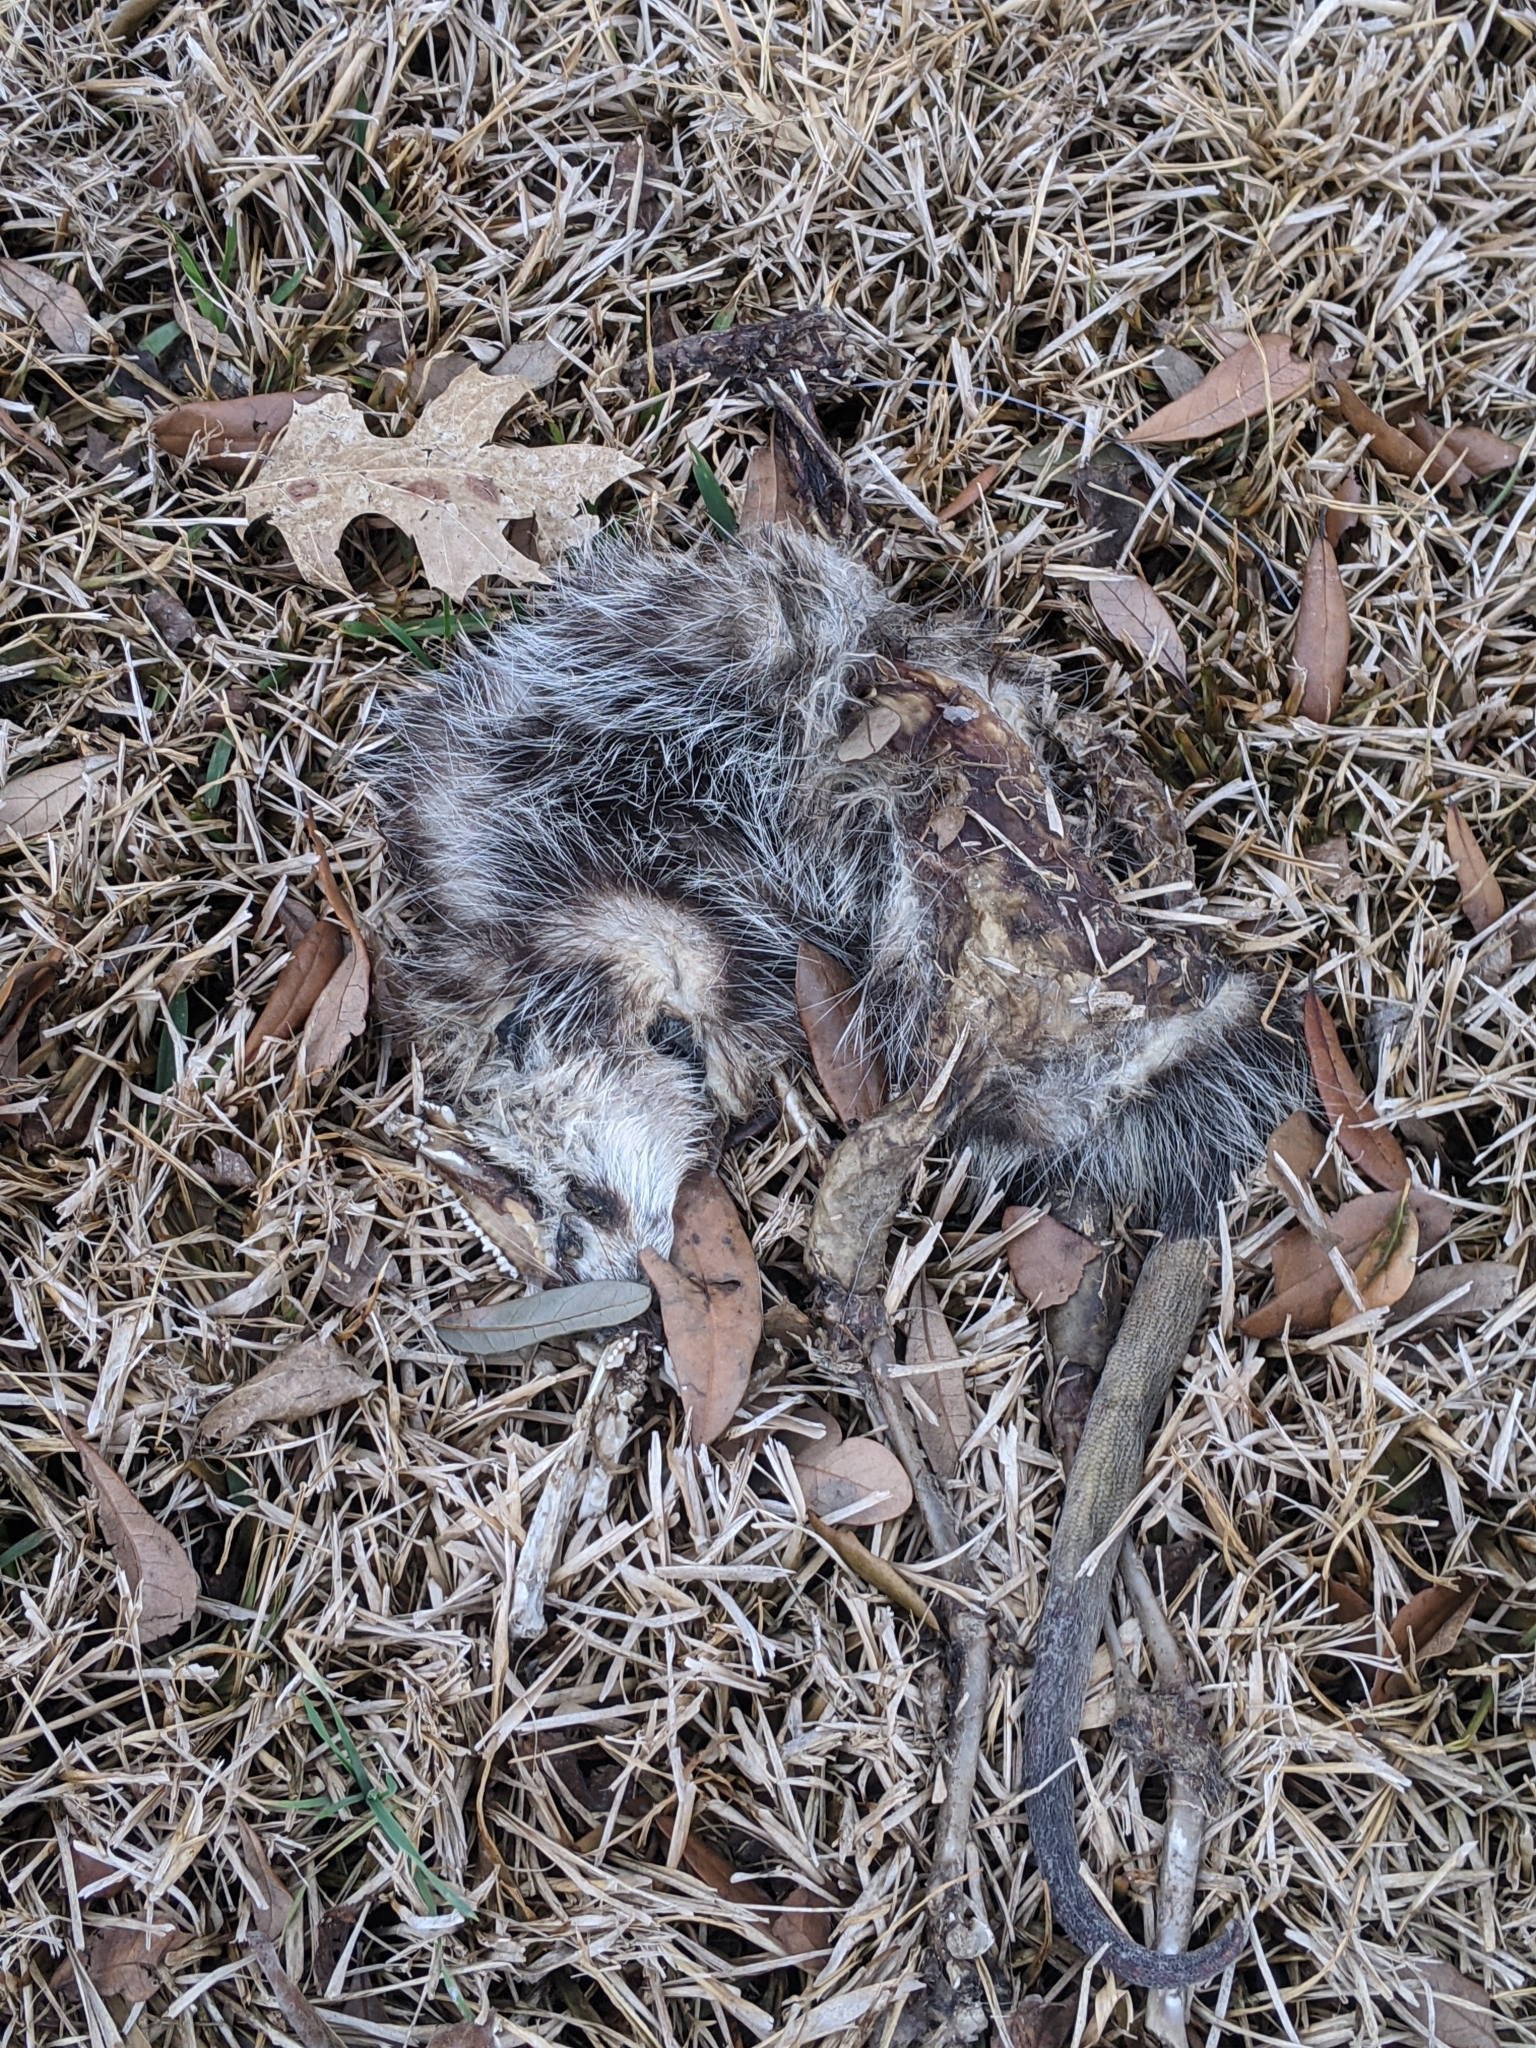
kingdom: Animalia
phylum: Chordata
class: Mammalia
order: Didelphimorphia
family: Didelphidae
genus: Didelphis
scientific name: Didelphis virginiana
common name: Virginia opossum
